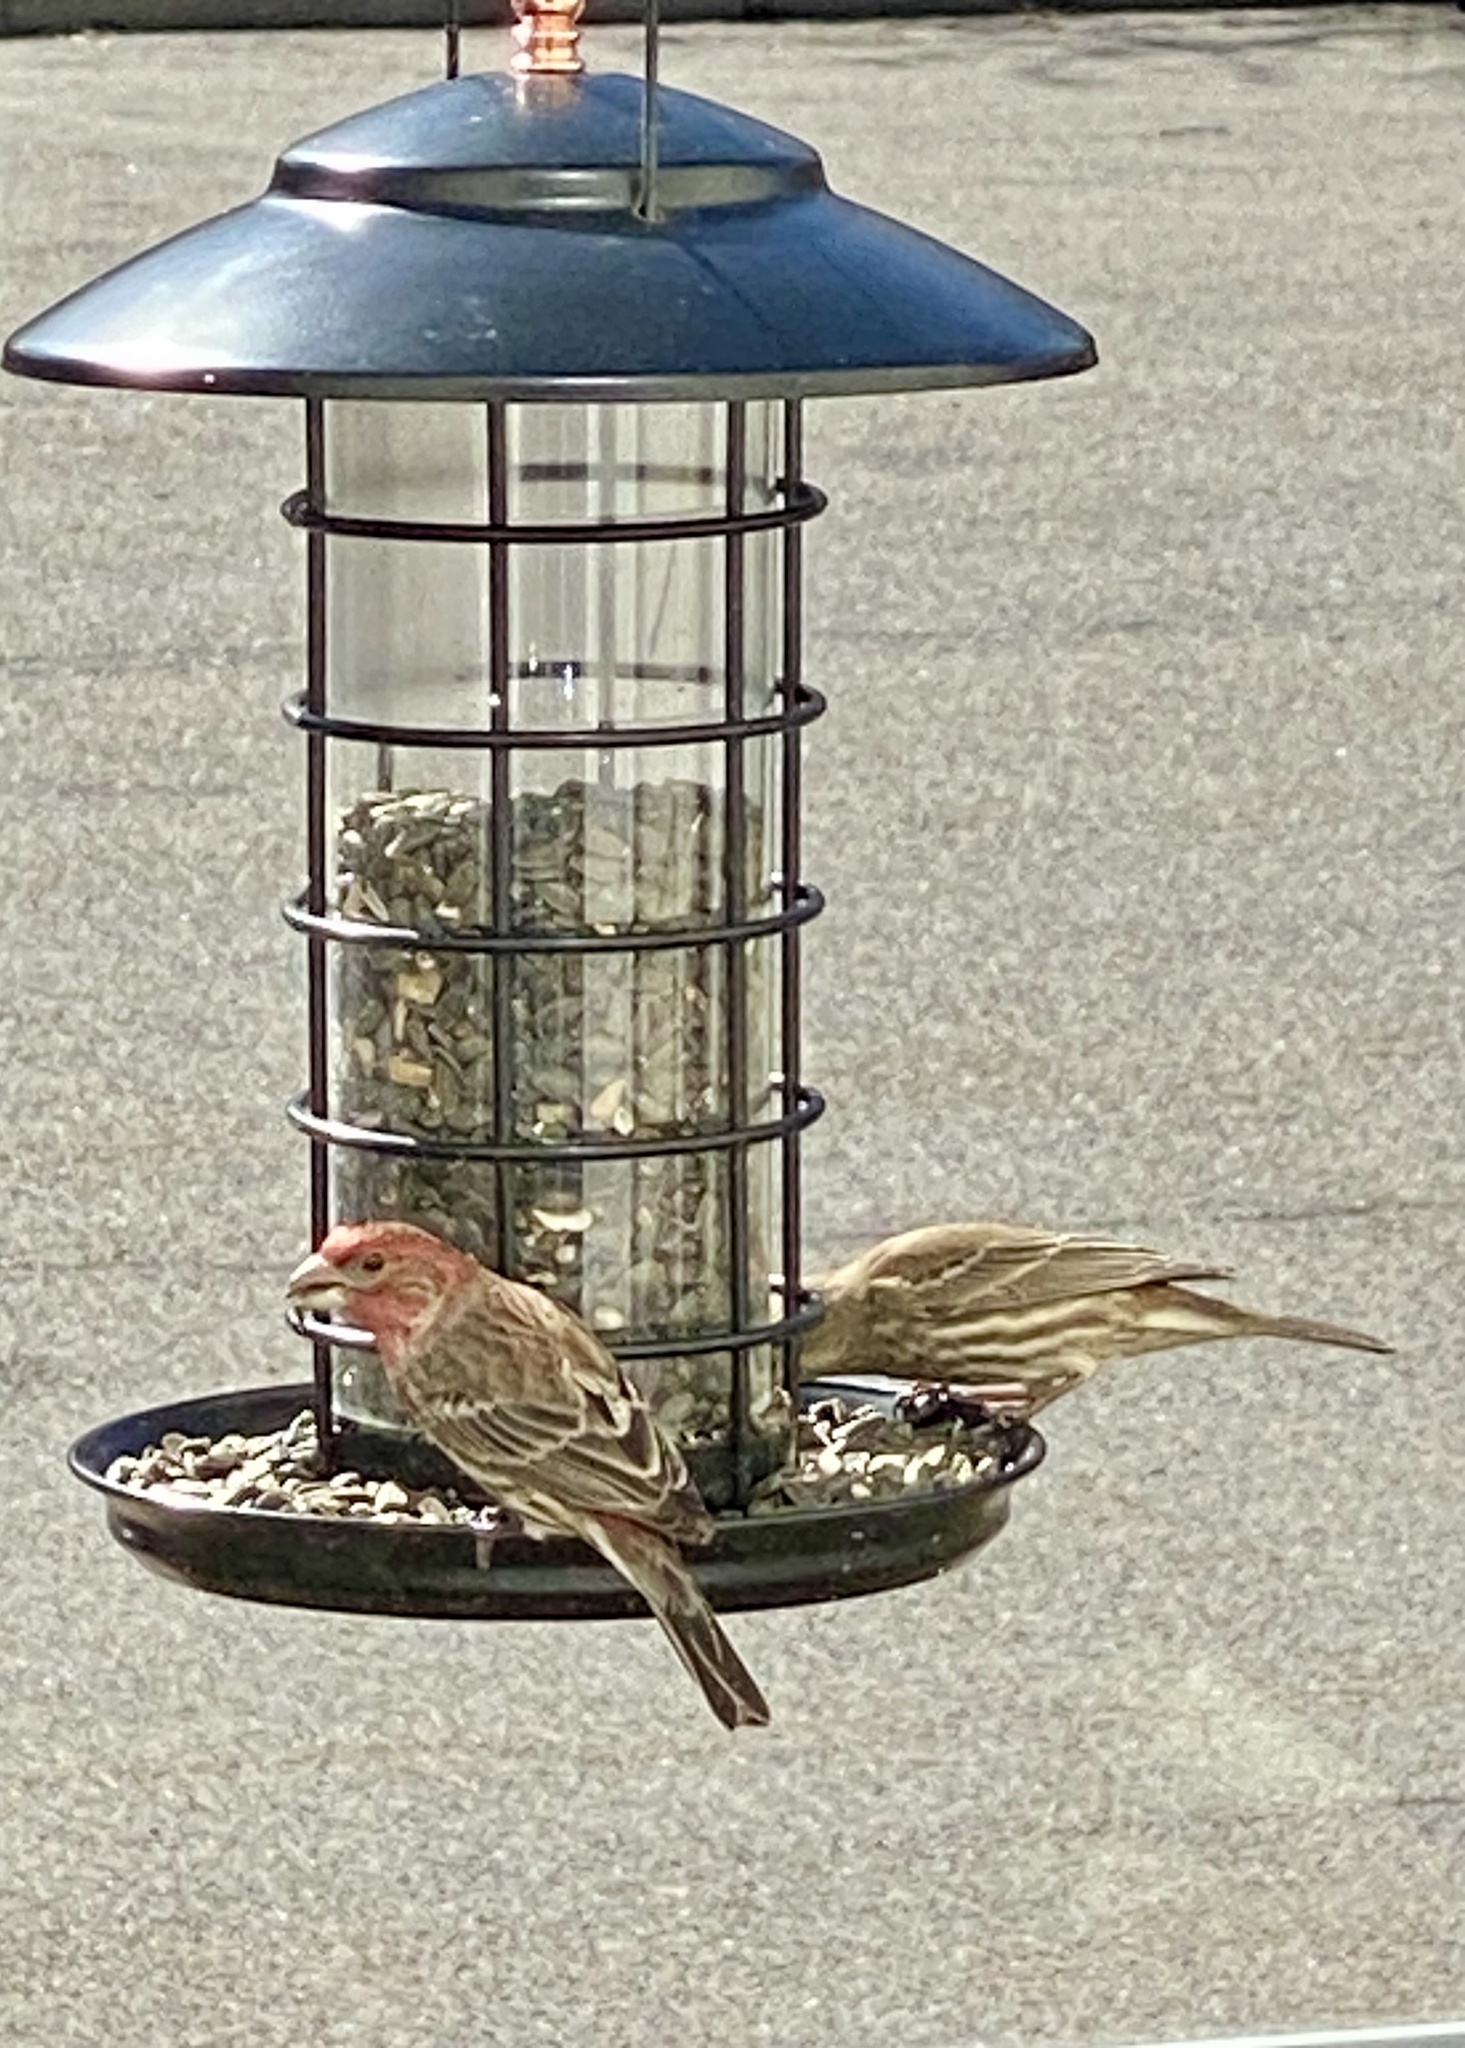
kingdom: Animalia
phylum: Chordata
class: Aves
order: Passeriformes
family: Fringillidae
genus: Haemorhous
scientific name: Haemorhous mexicanus
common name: House finch
